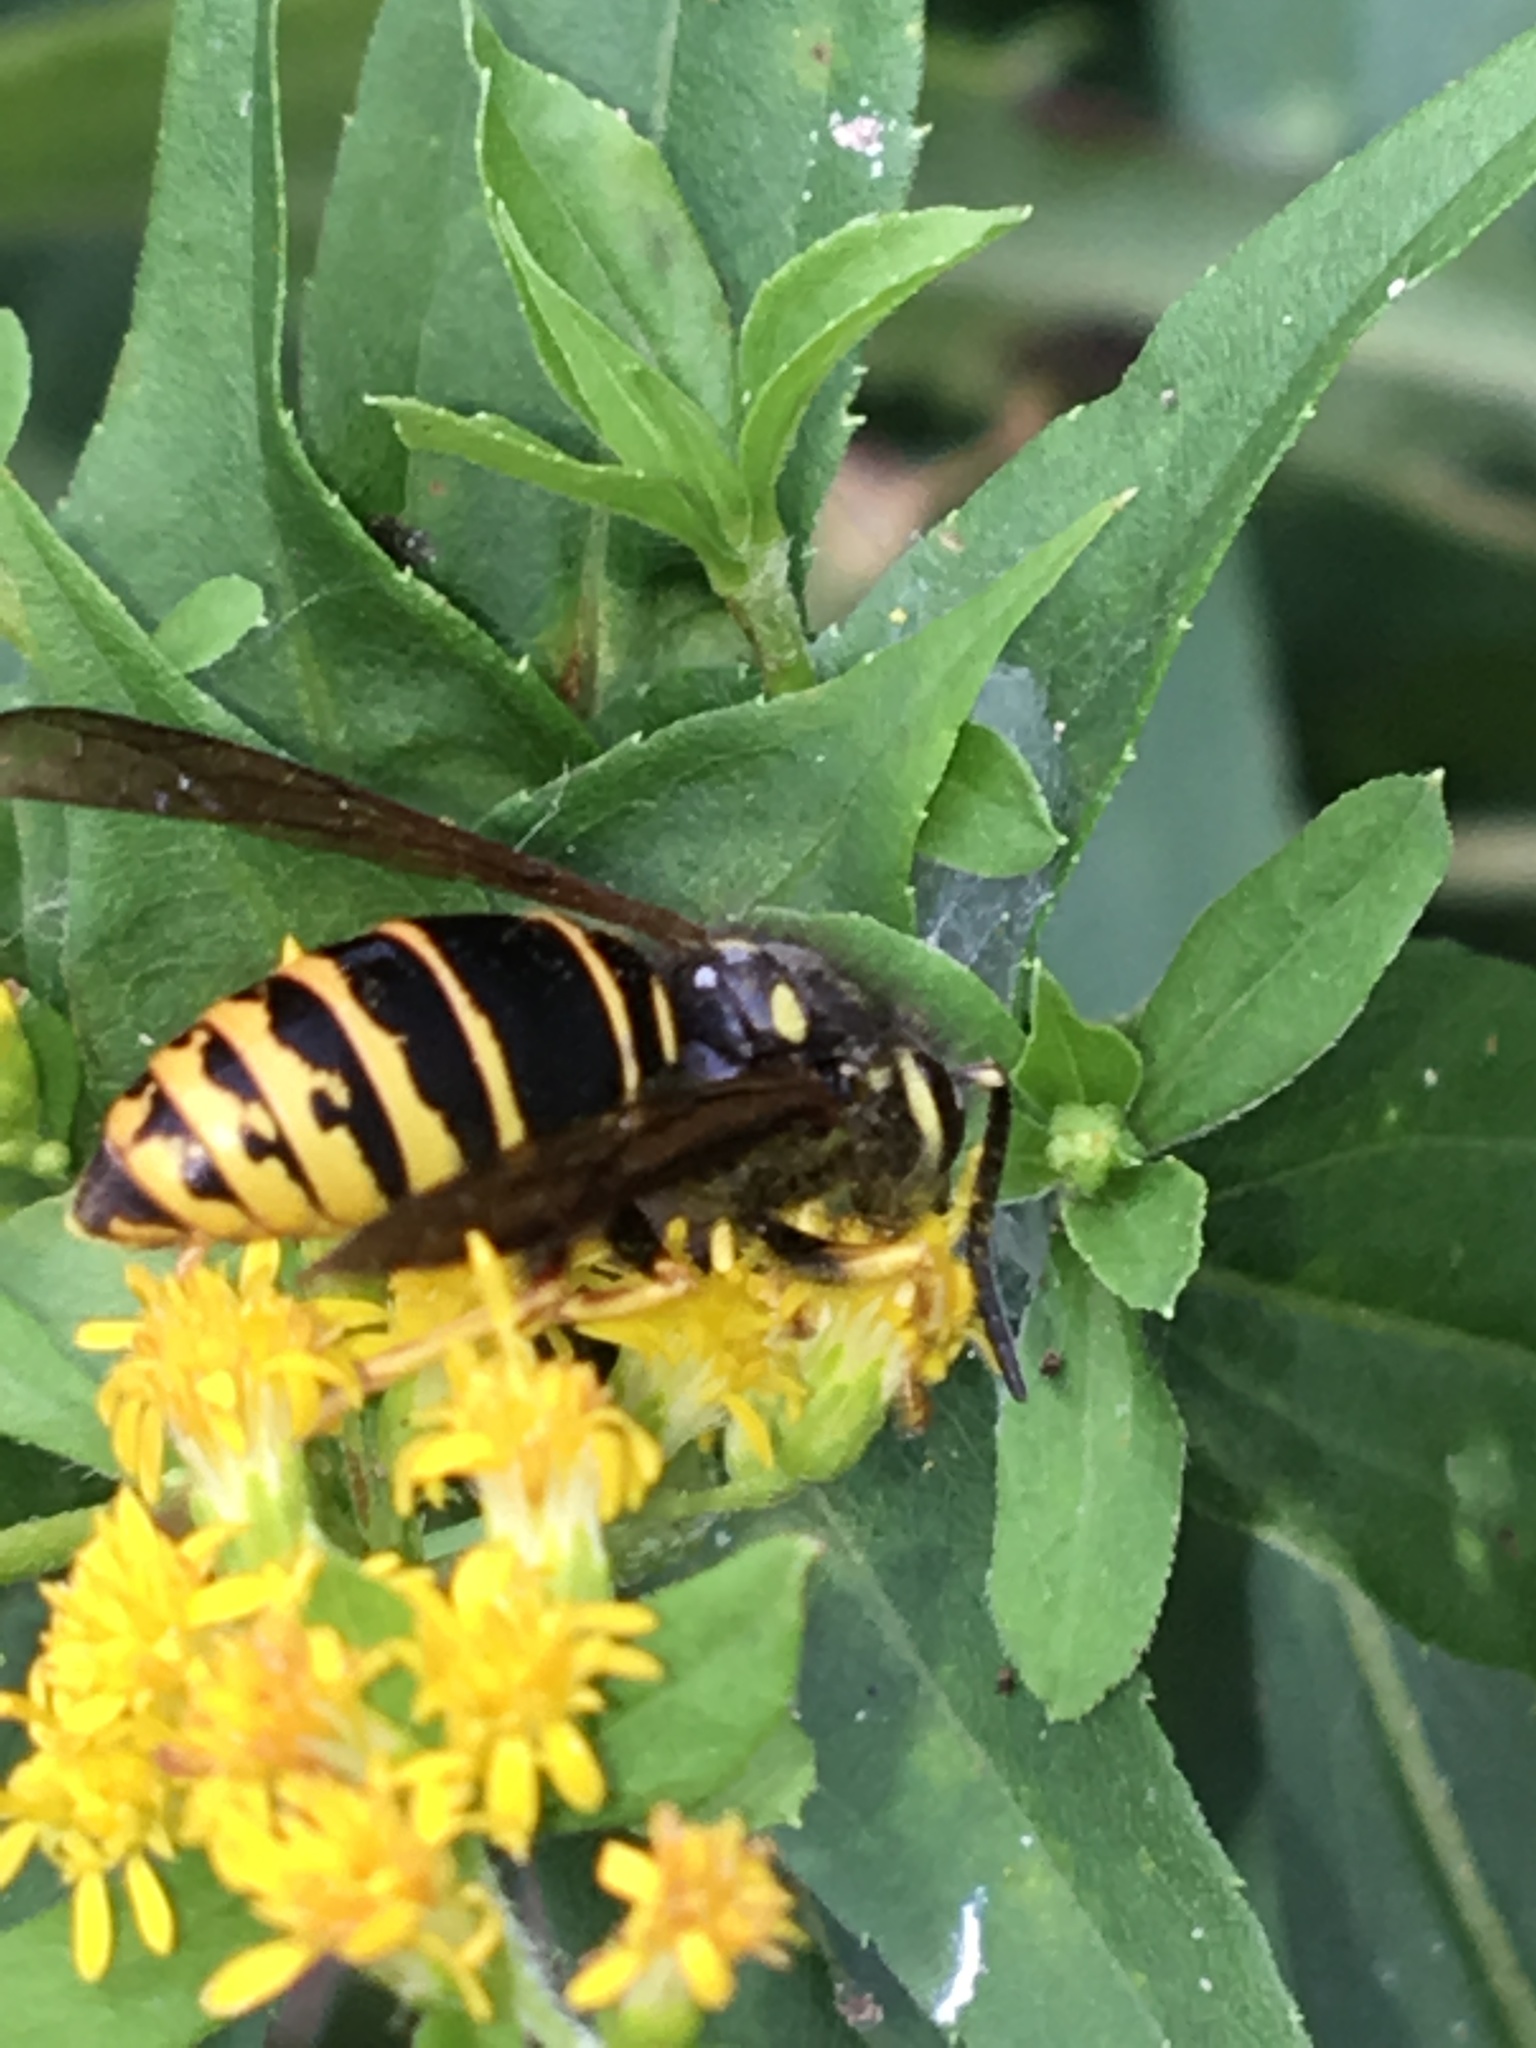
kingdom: Animalia
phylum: Arthropoda
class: Insecta
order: Hymenoptera
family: Vespidae
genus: Vespula
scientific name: Vespula vidua
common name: Widow yellowjacket
